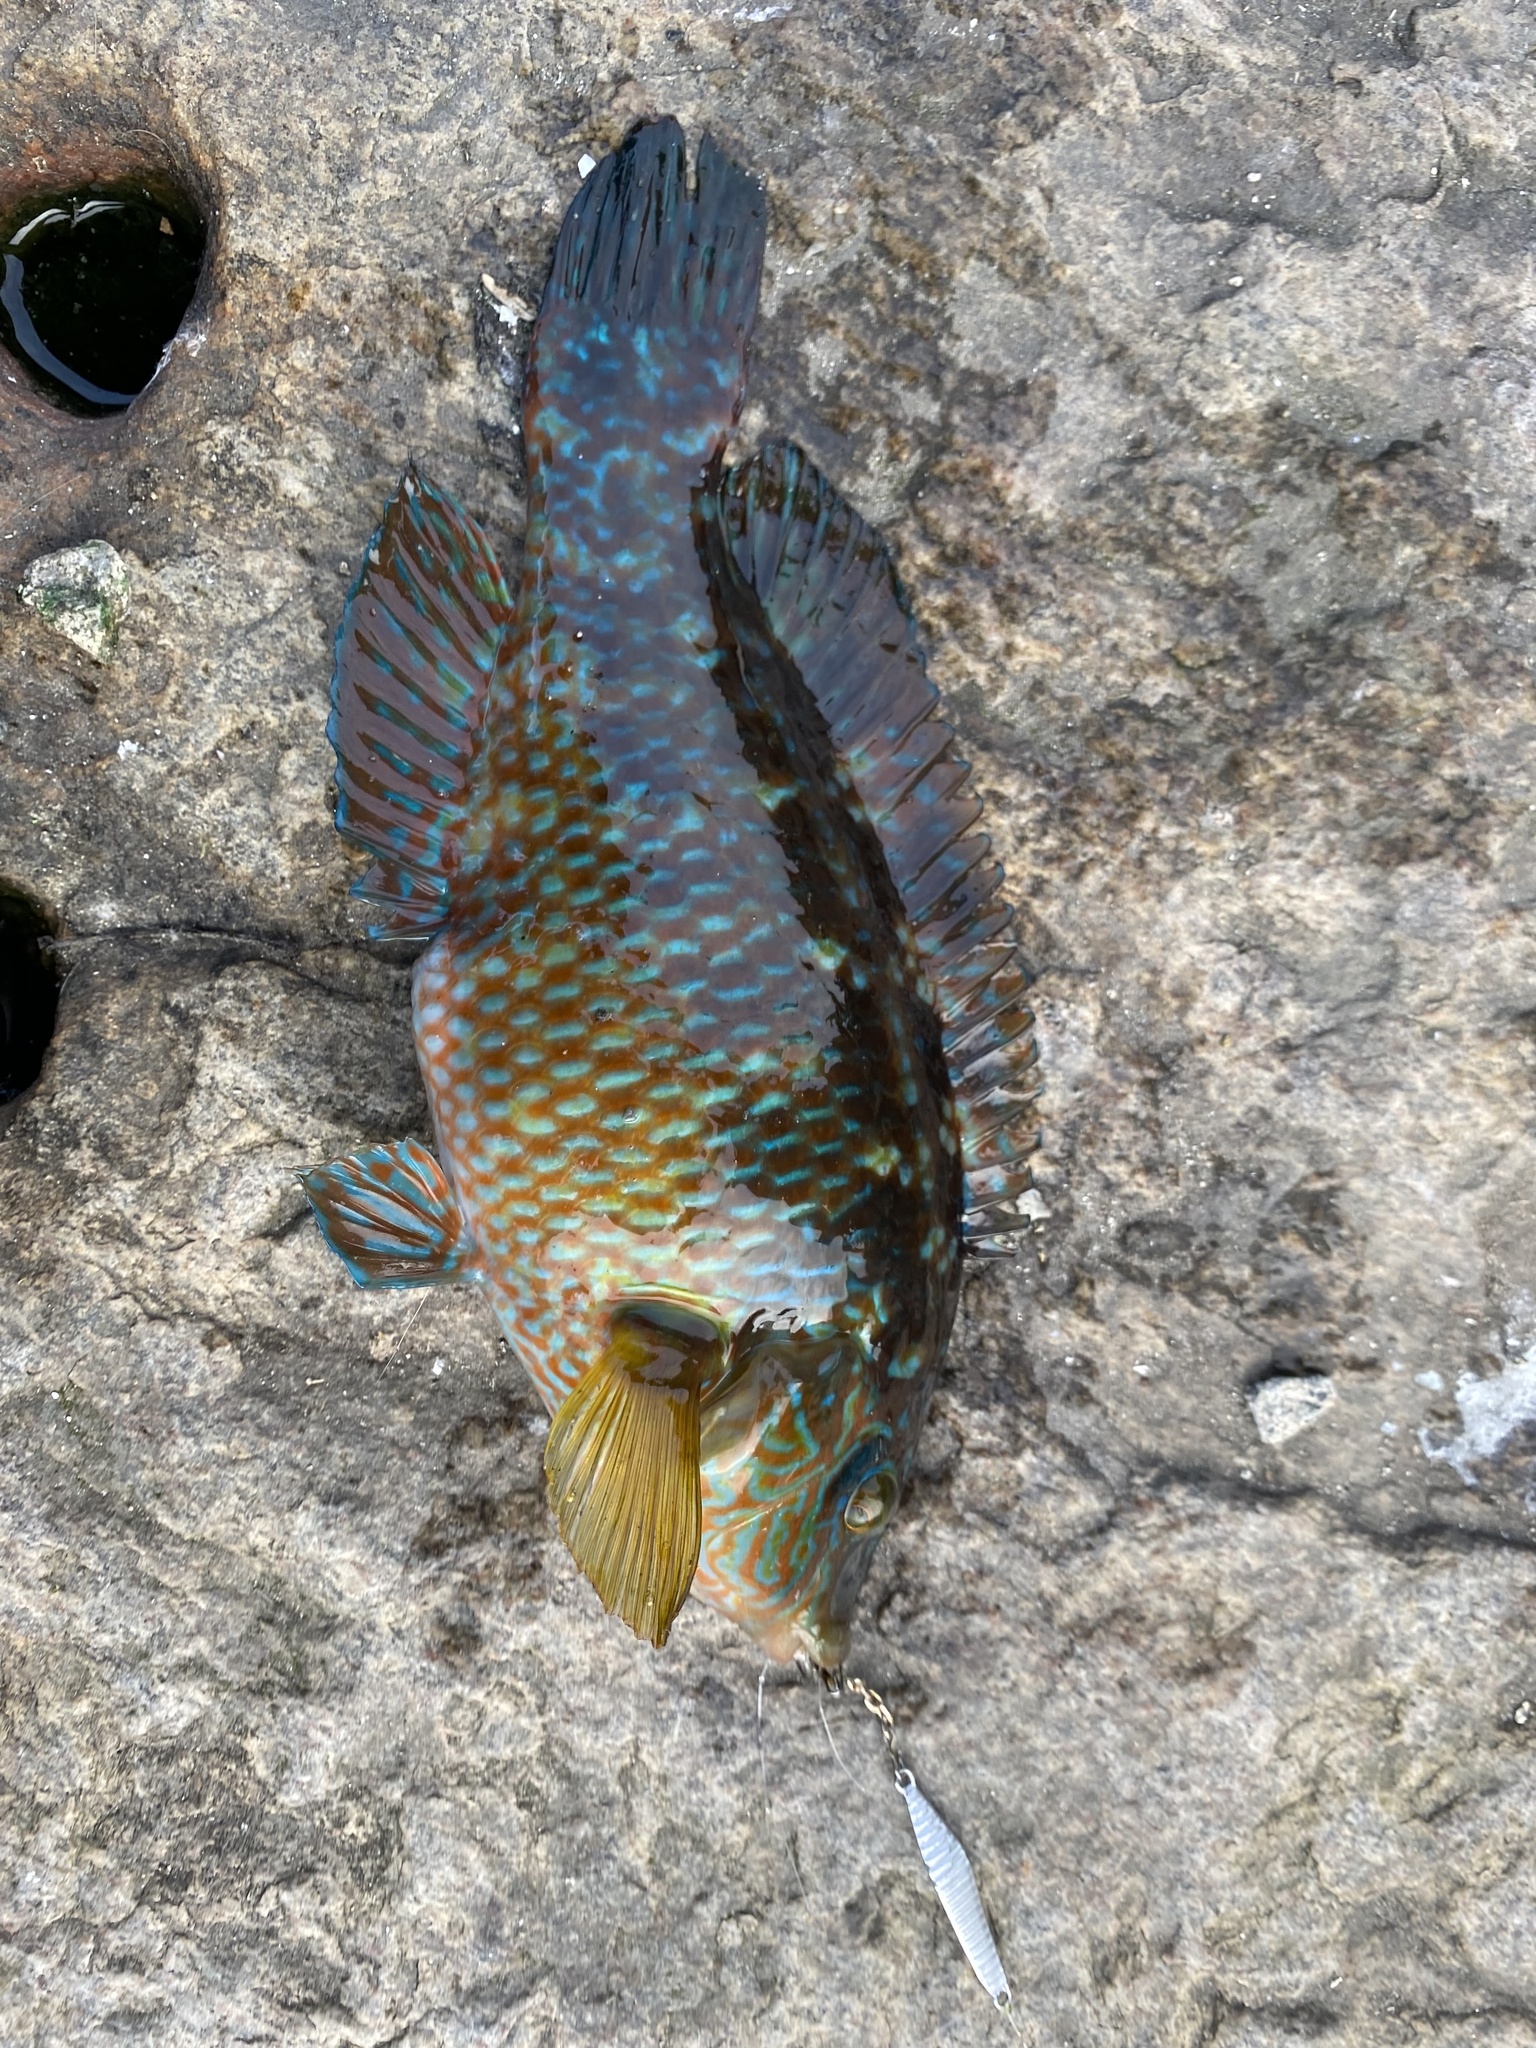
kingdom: Animalia
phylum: Chordata
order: Perciformes
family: Labridae
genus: Symphodus
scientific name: Symphodus melops
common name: Corkwing
